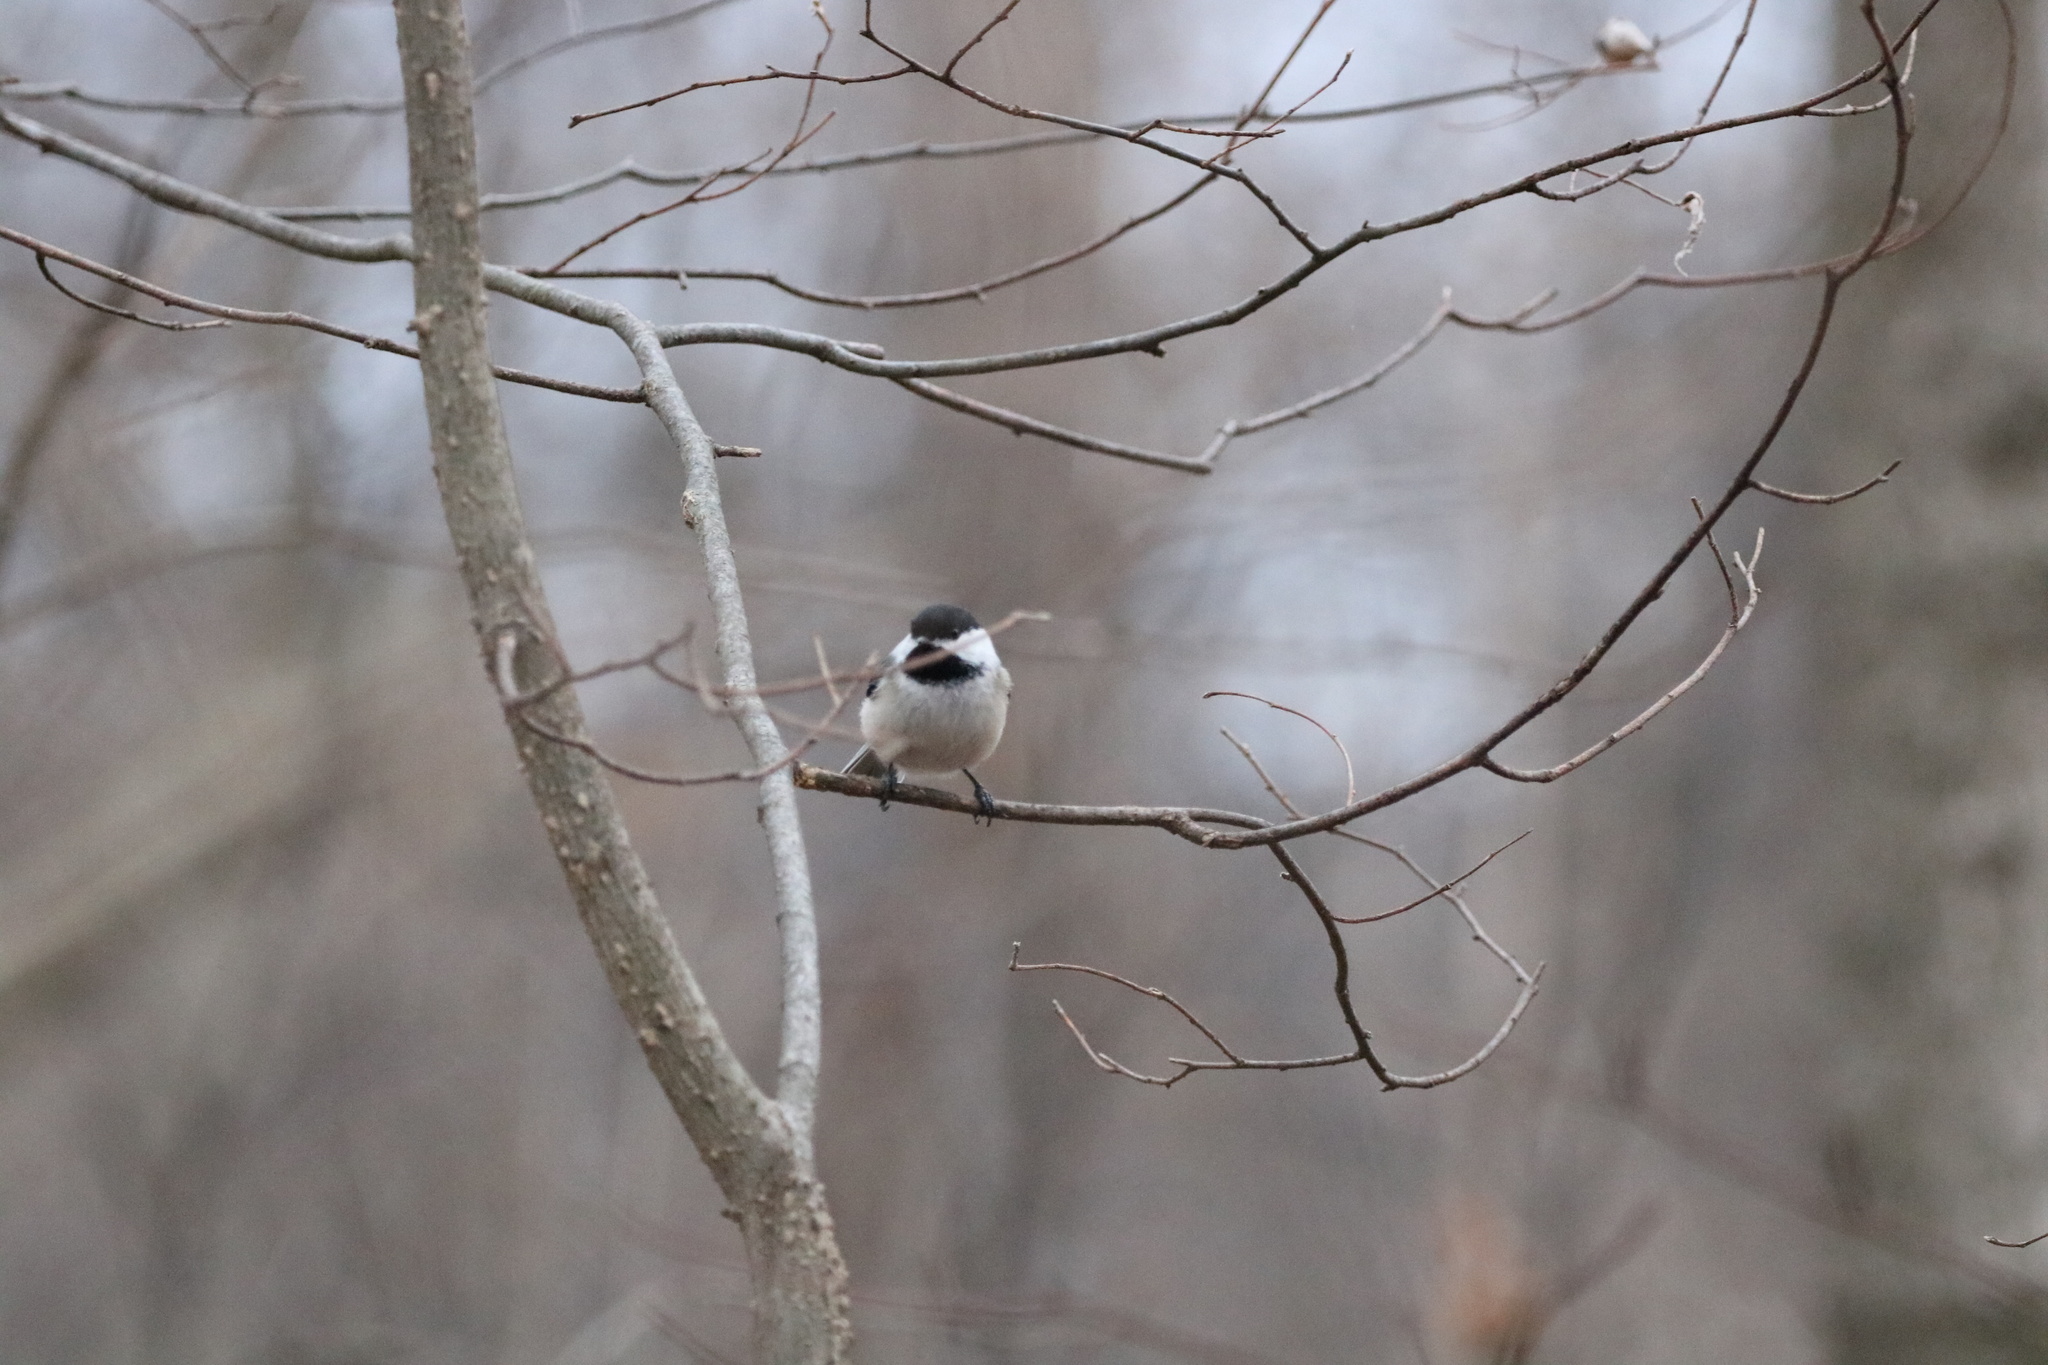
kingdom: Animalia
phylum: Chordata
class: Aves
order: Passeriformes
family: Paridae
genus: Poecile
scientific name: Poecile atricapillus
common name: Black-capped chickadee
